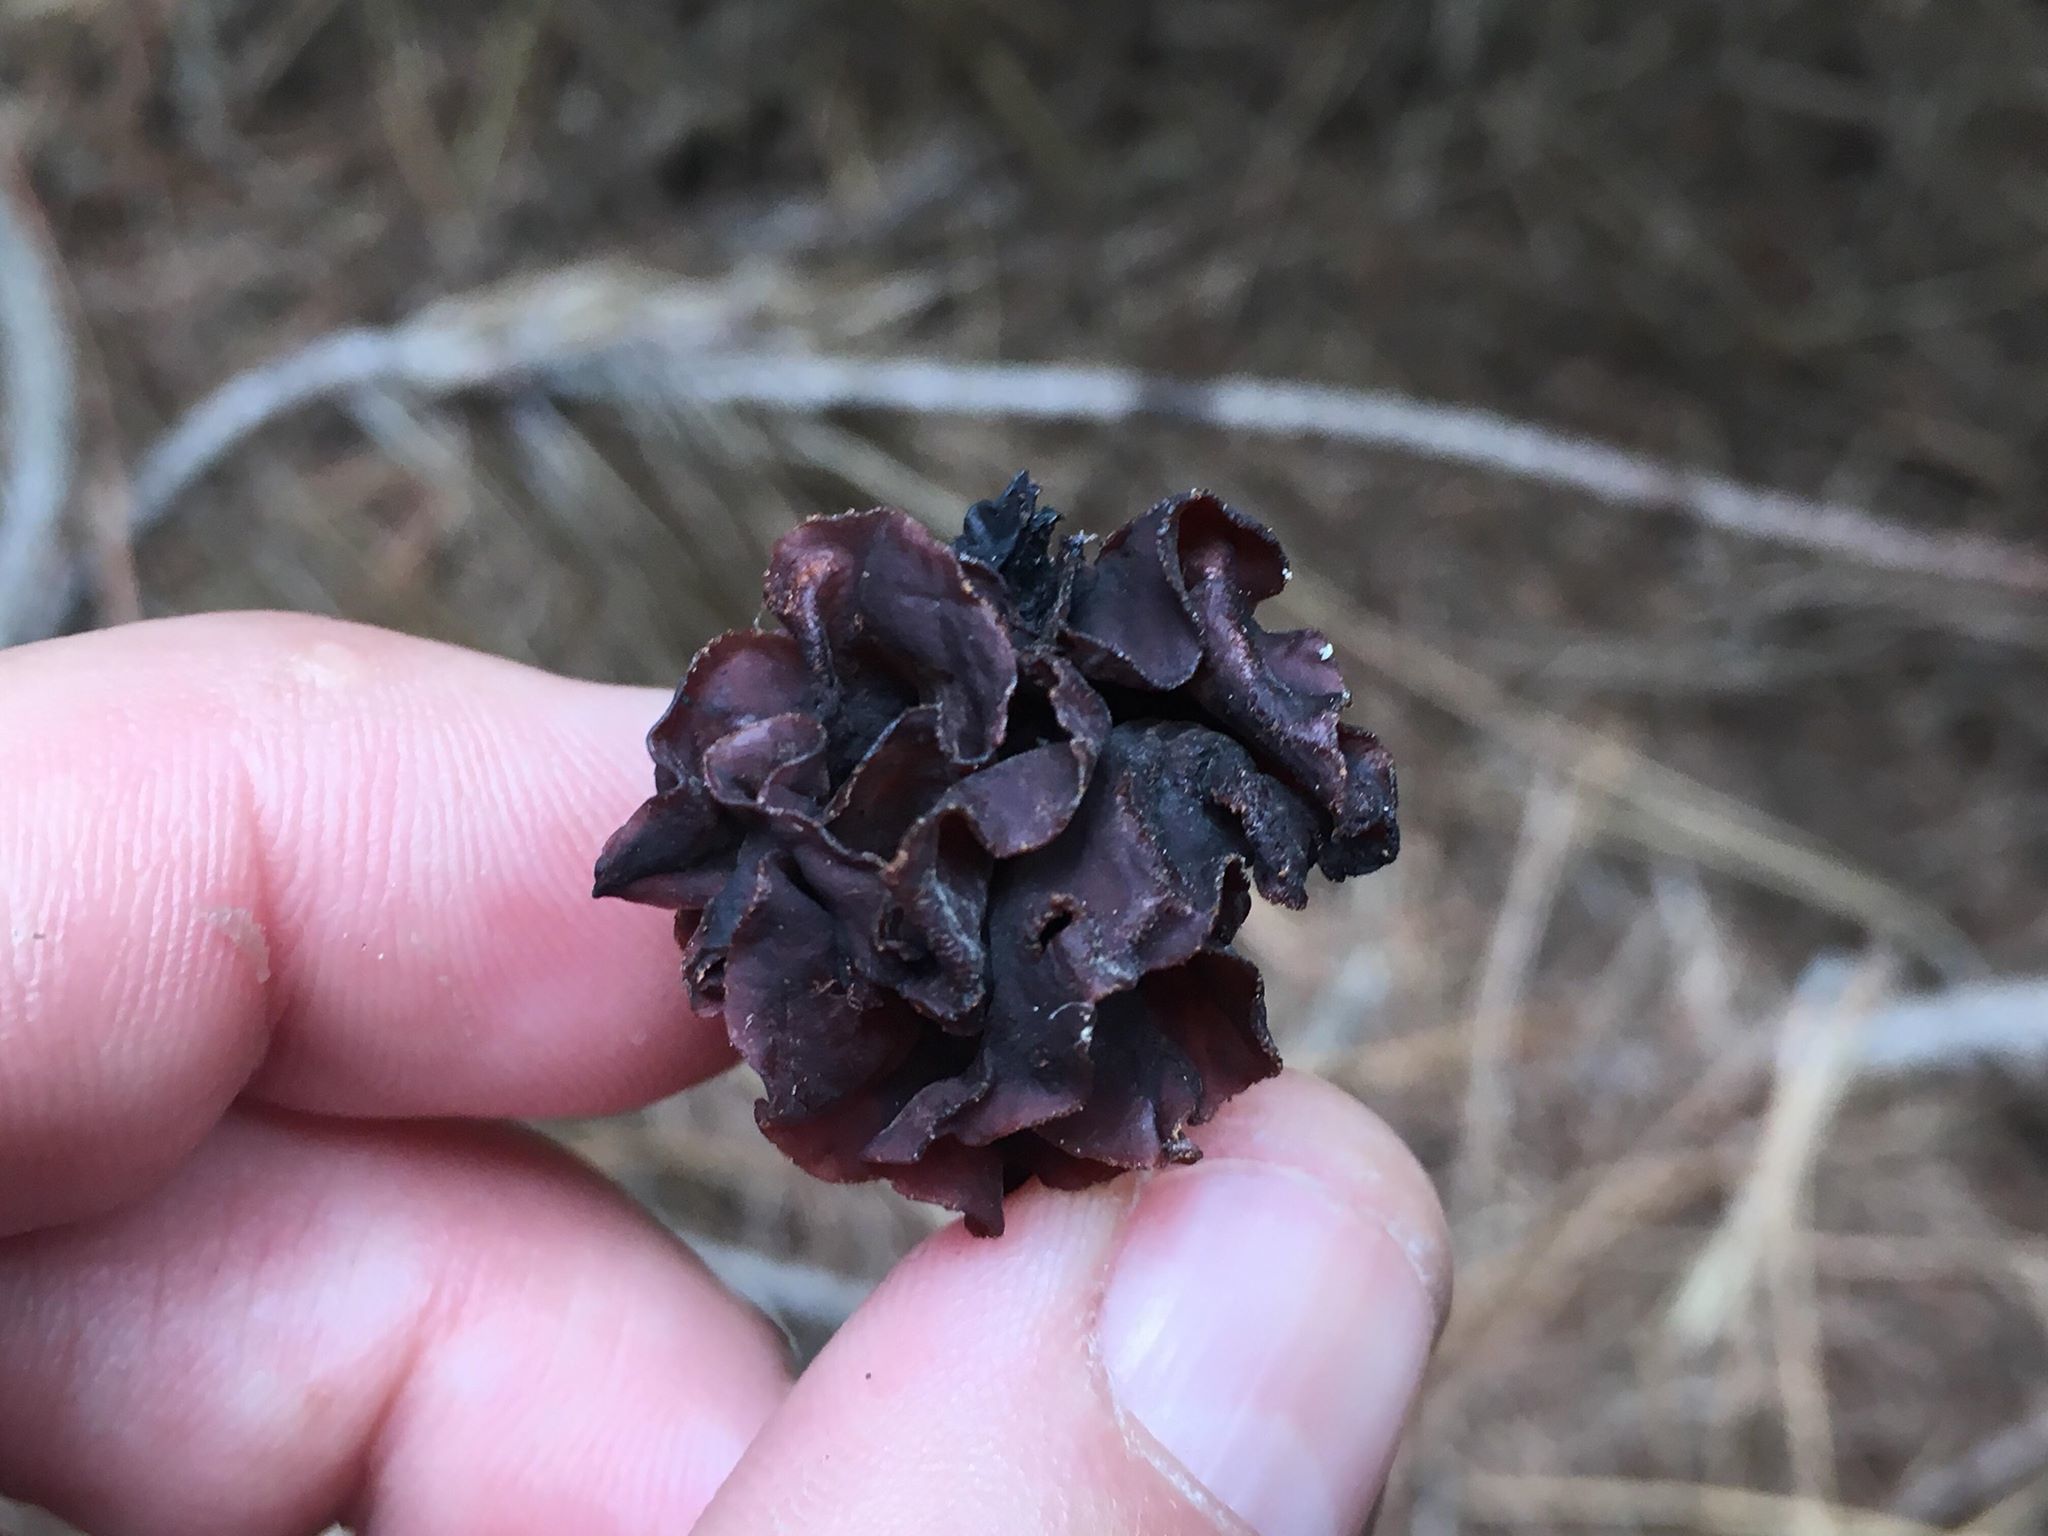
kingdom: Fungi
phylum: Basidiomycota
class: Tremellomycetes
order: Tremellales
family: Tremellaceae
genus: Phaeotremella
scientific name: Phaeotremella foliacea
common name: Leafy brain
